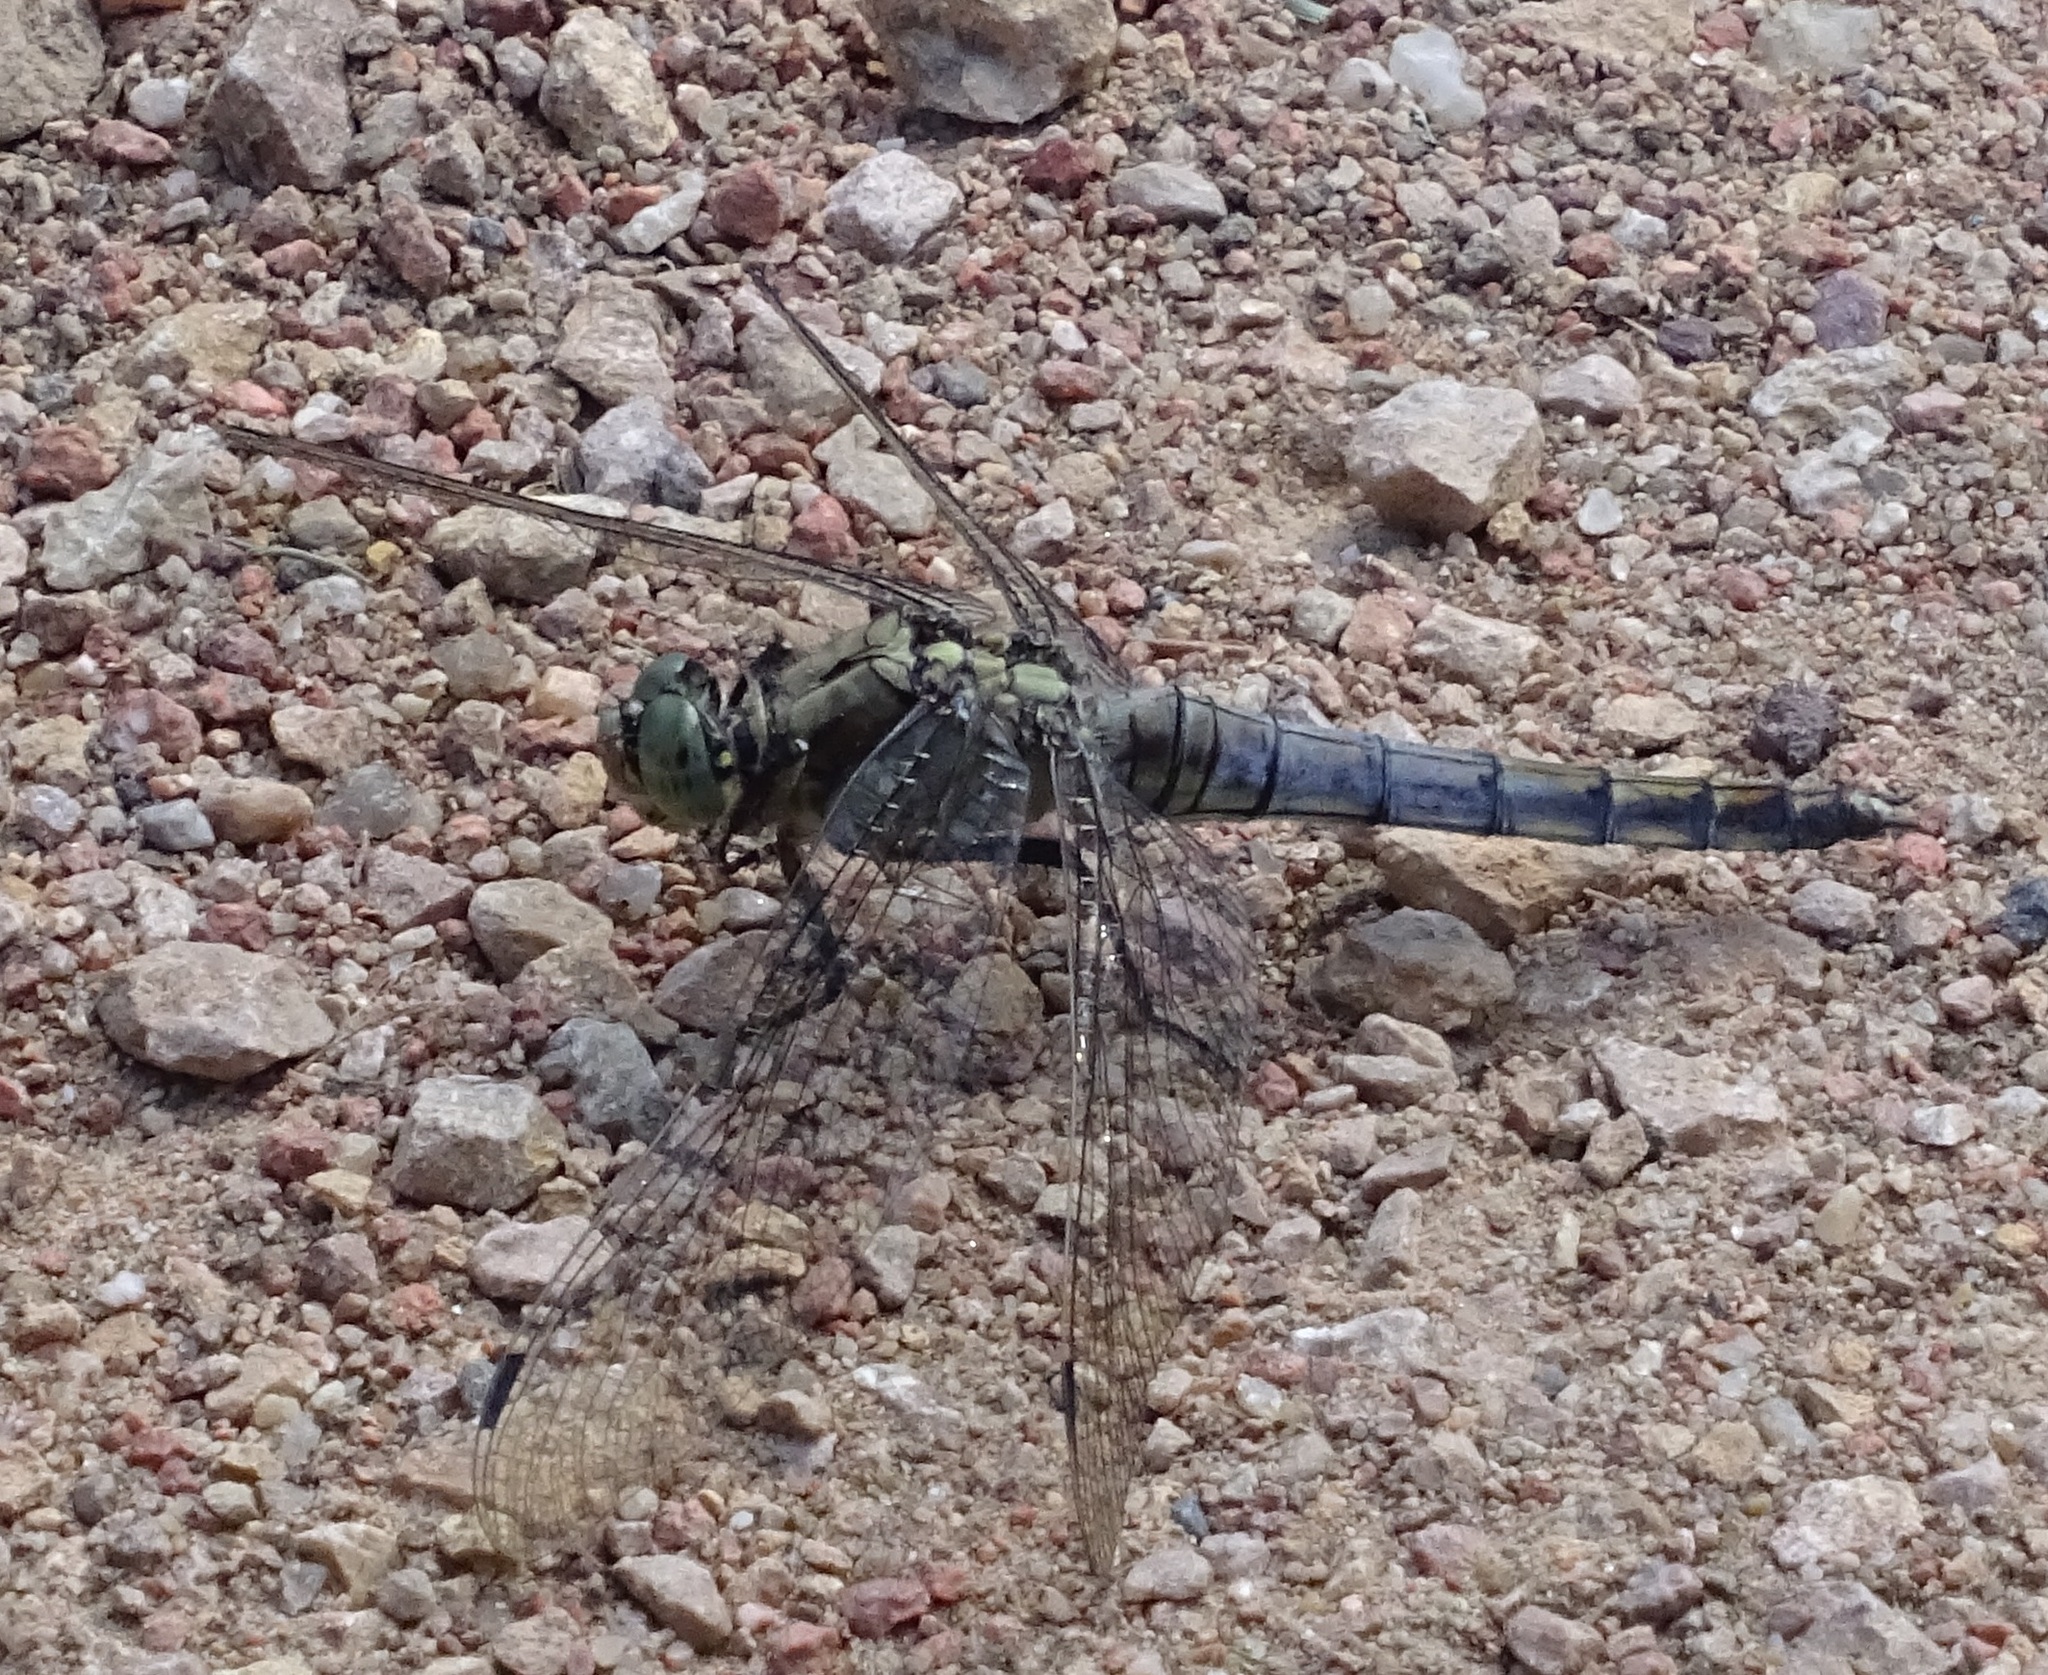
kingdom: Animalia
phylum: Arthropoda
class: Insecta
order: Odonata
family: Libellulidae
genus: Orthetrum
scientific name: Orthetrum cancellatum
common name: Black-tailed skimmer
